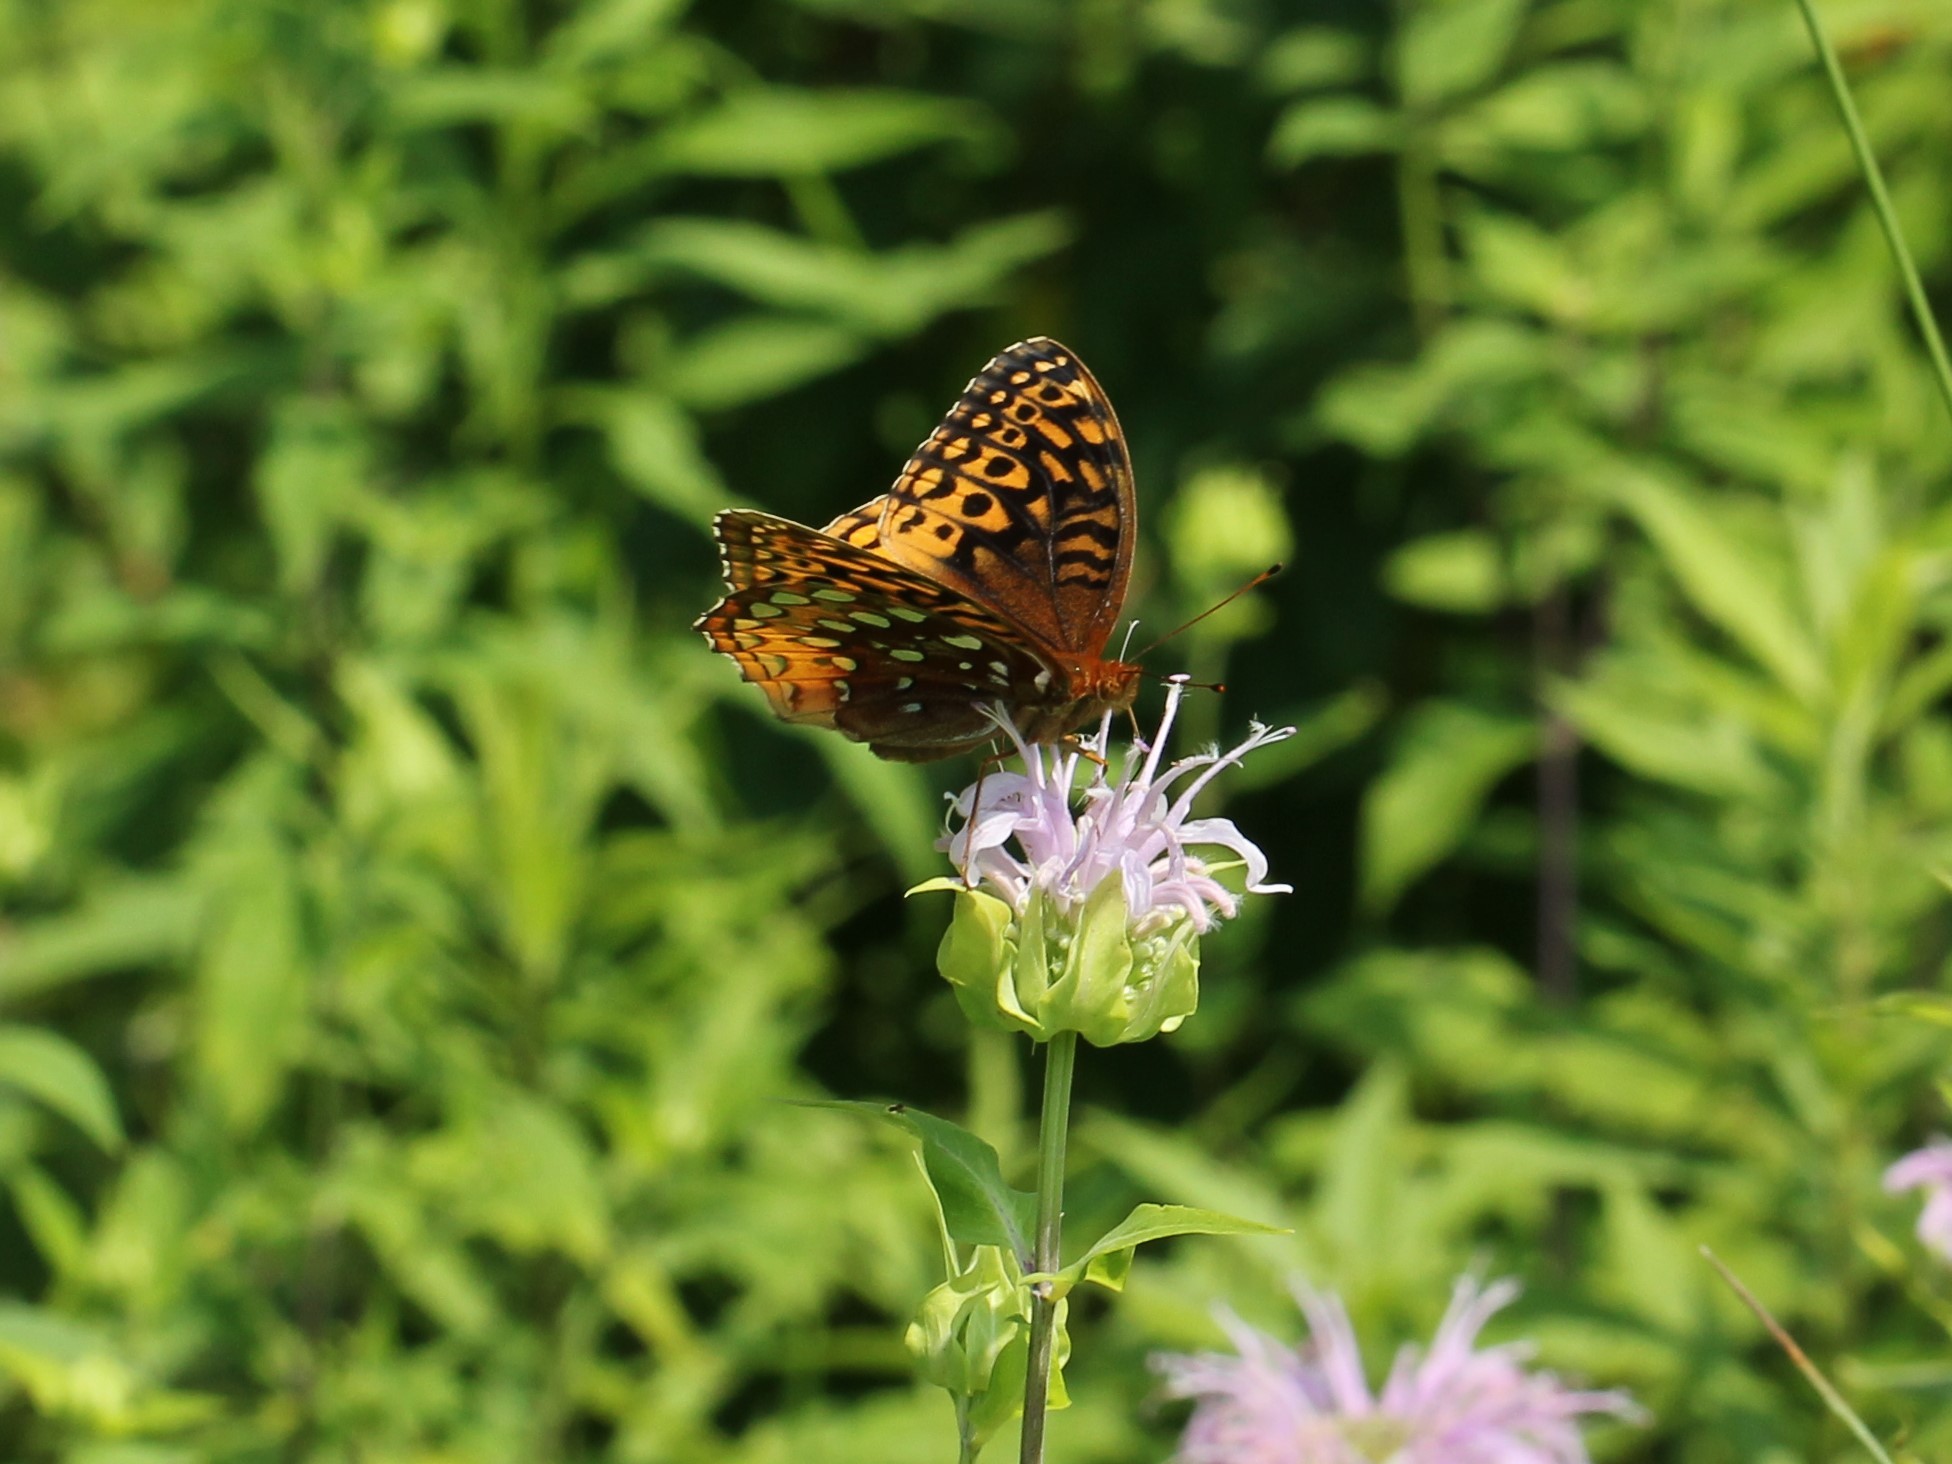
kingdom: Animalia
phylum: Arthropoda
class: Insecta
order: Lepidoptera
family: Nymphalidae
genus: Speyeria
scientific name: Speyeria cybele
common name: Great spangled fritillary
